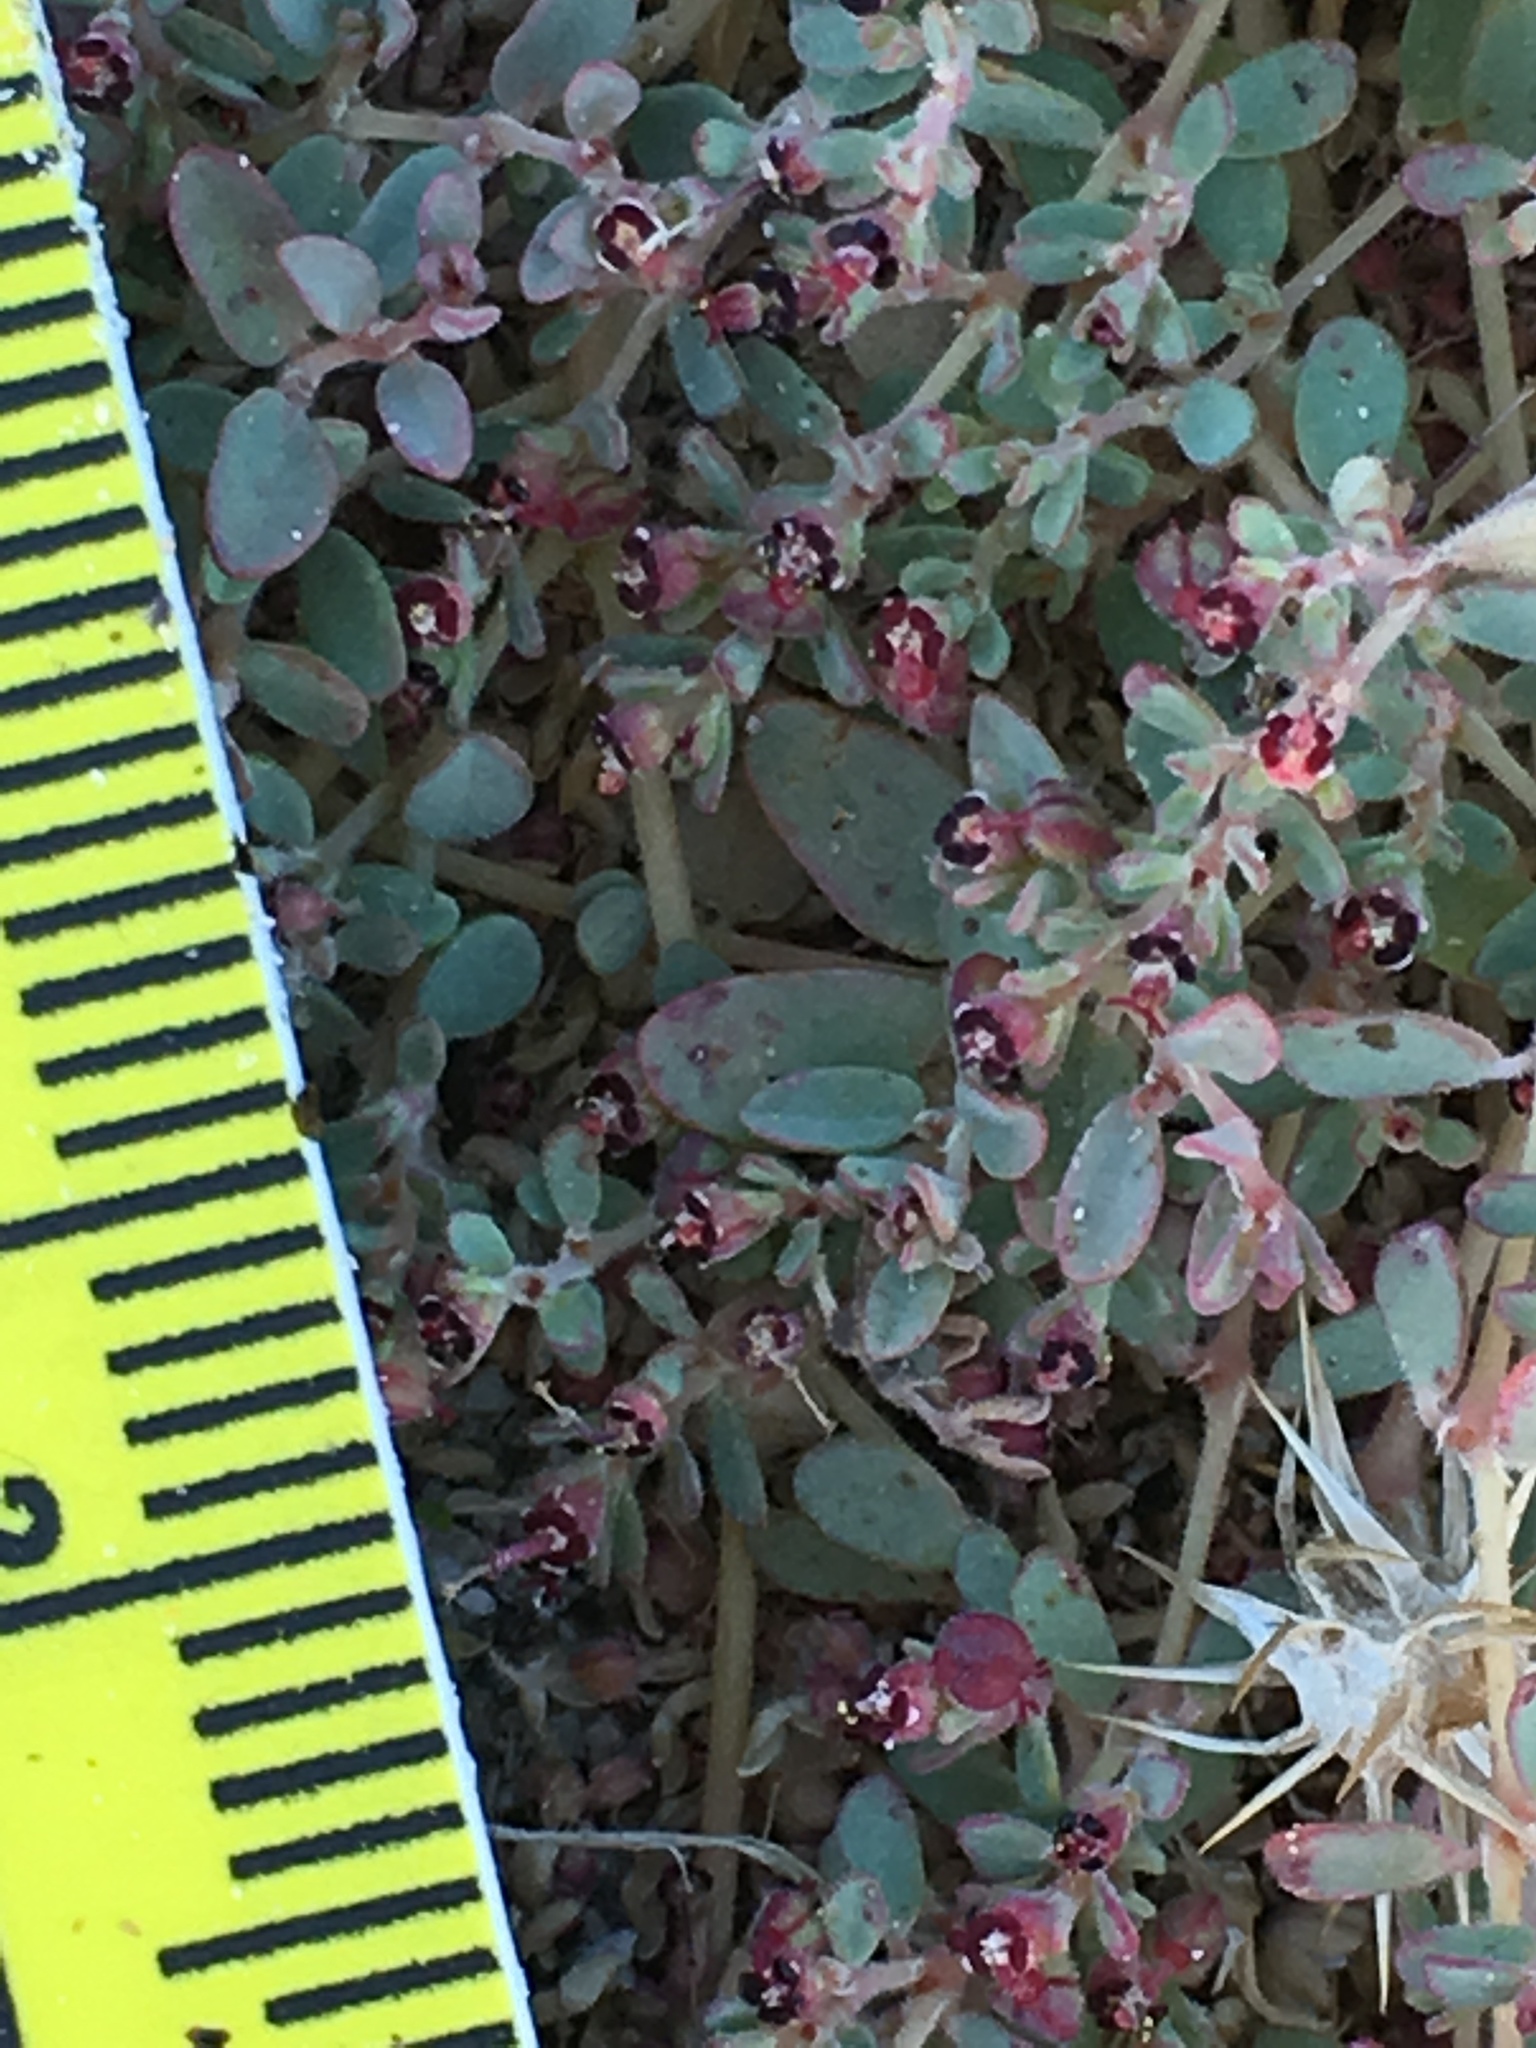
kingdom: Plantae
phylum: Tracheophyta
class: Magnoliopsida
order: Malpighiales
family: Euphorbiaceae
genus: Euphorbia
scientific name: Euphorbia polycarpa
